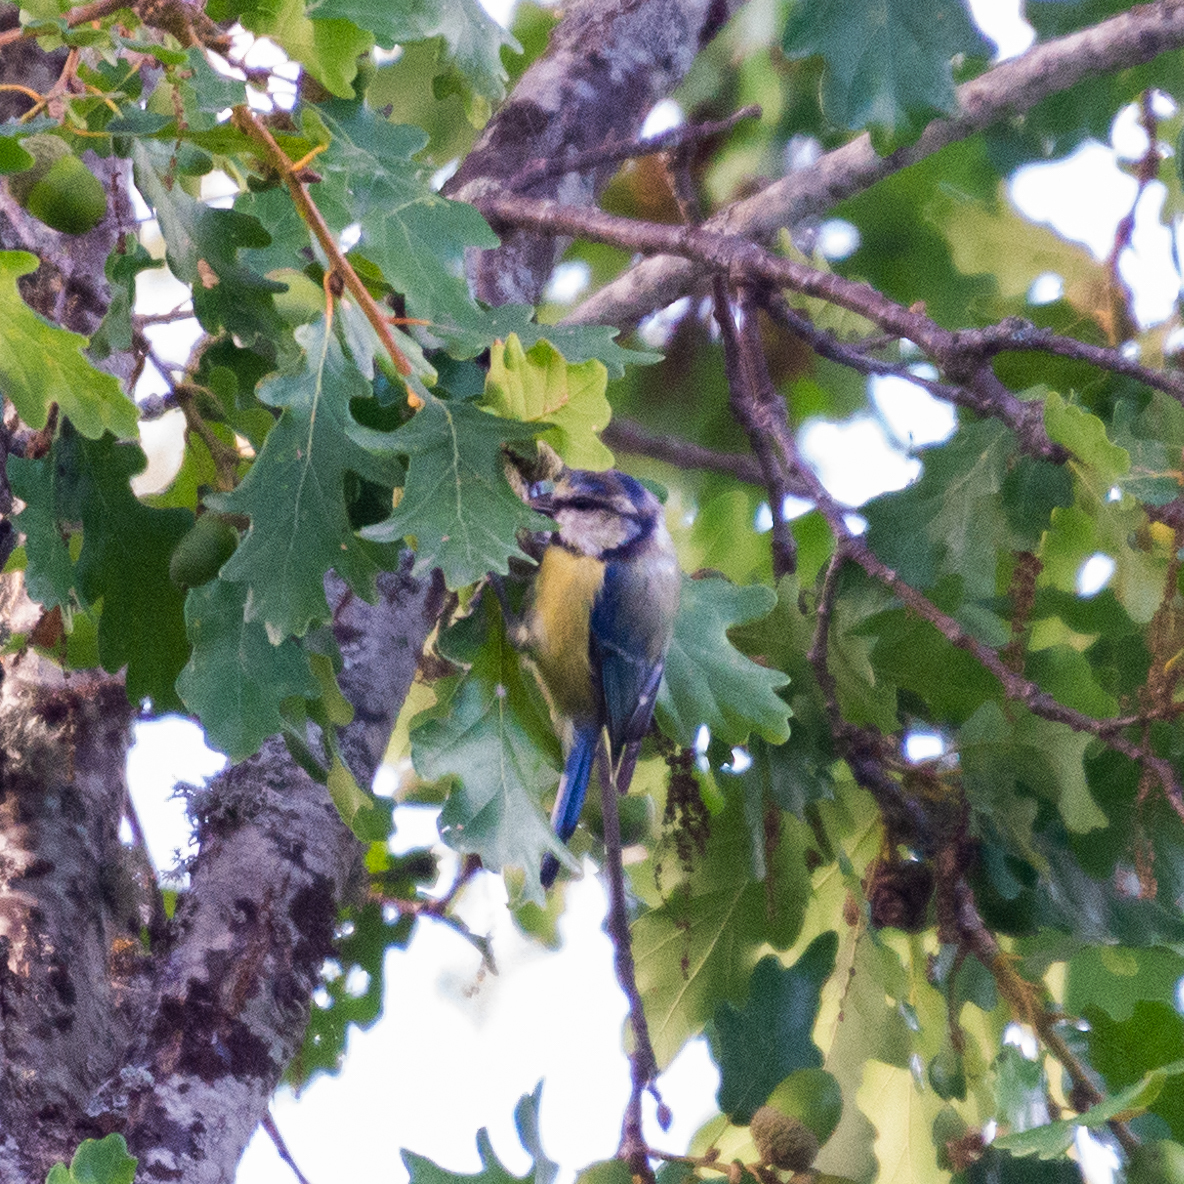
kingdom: Animalia
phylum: Chordata
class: Aves
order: Passeriformes
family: Paridae
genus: Cyanistes
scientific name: Cyanistes caeruleus
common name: Eurasian blue tit
